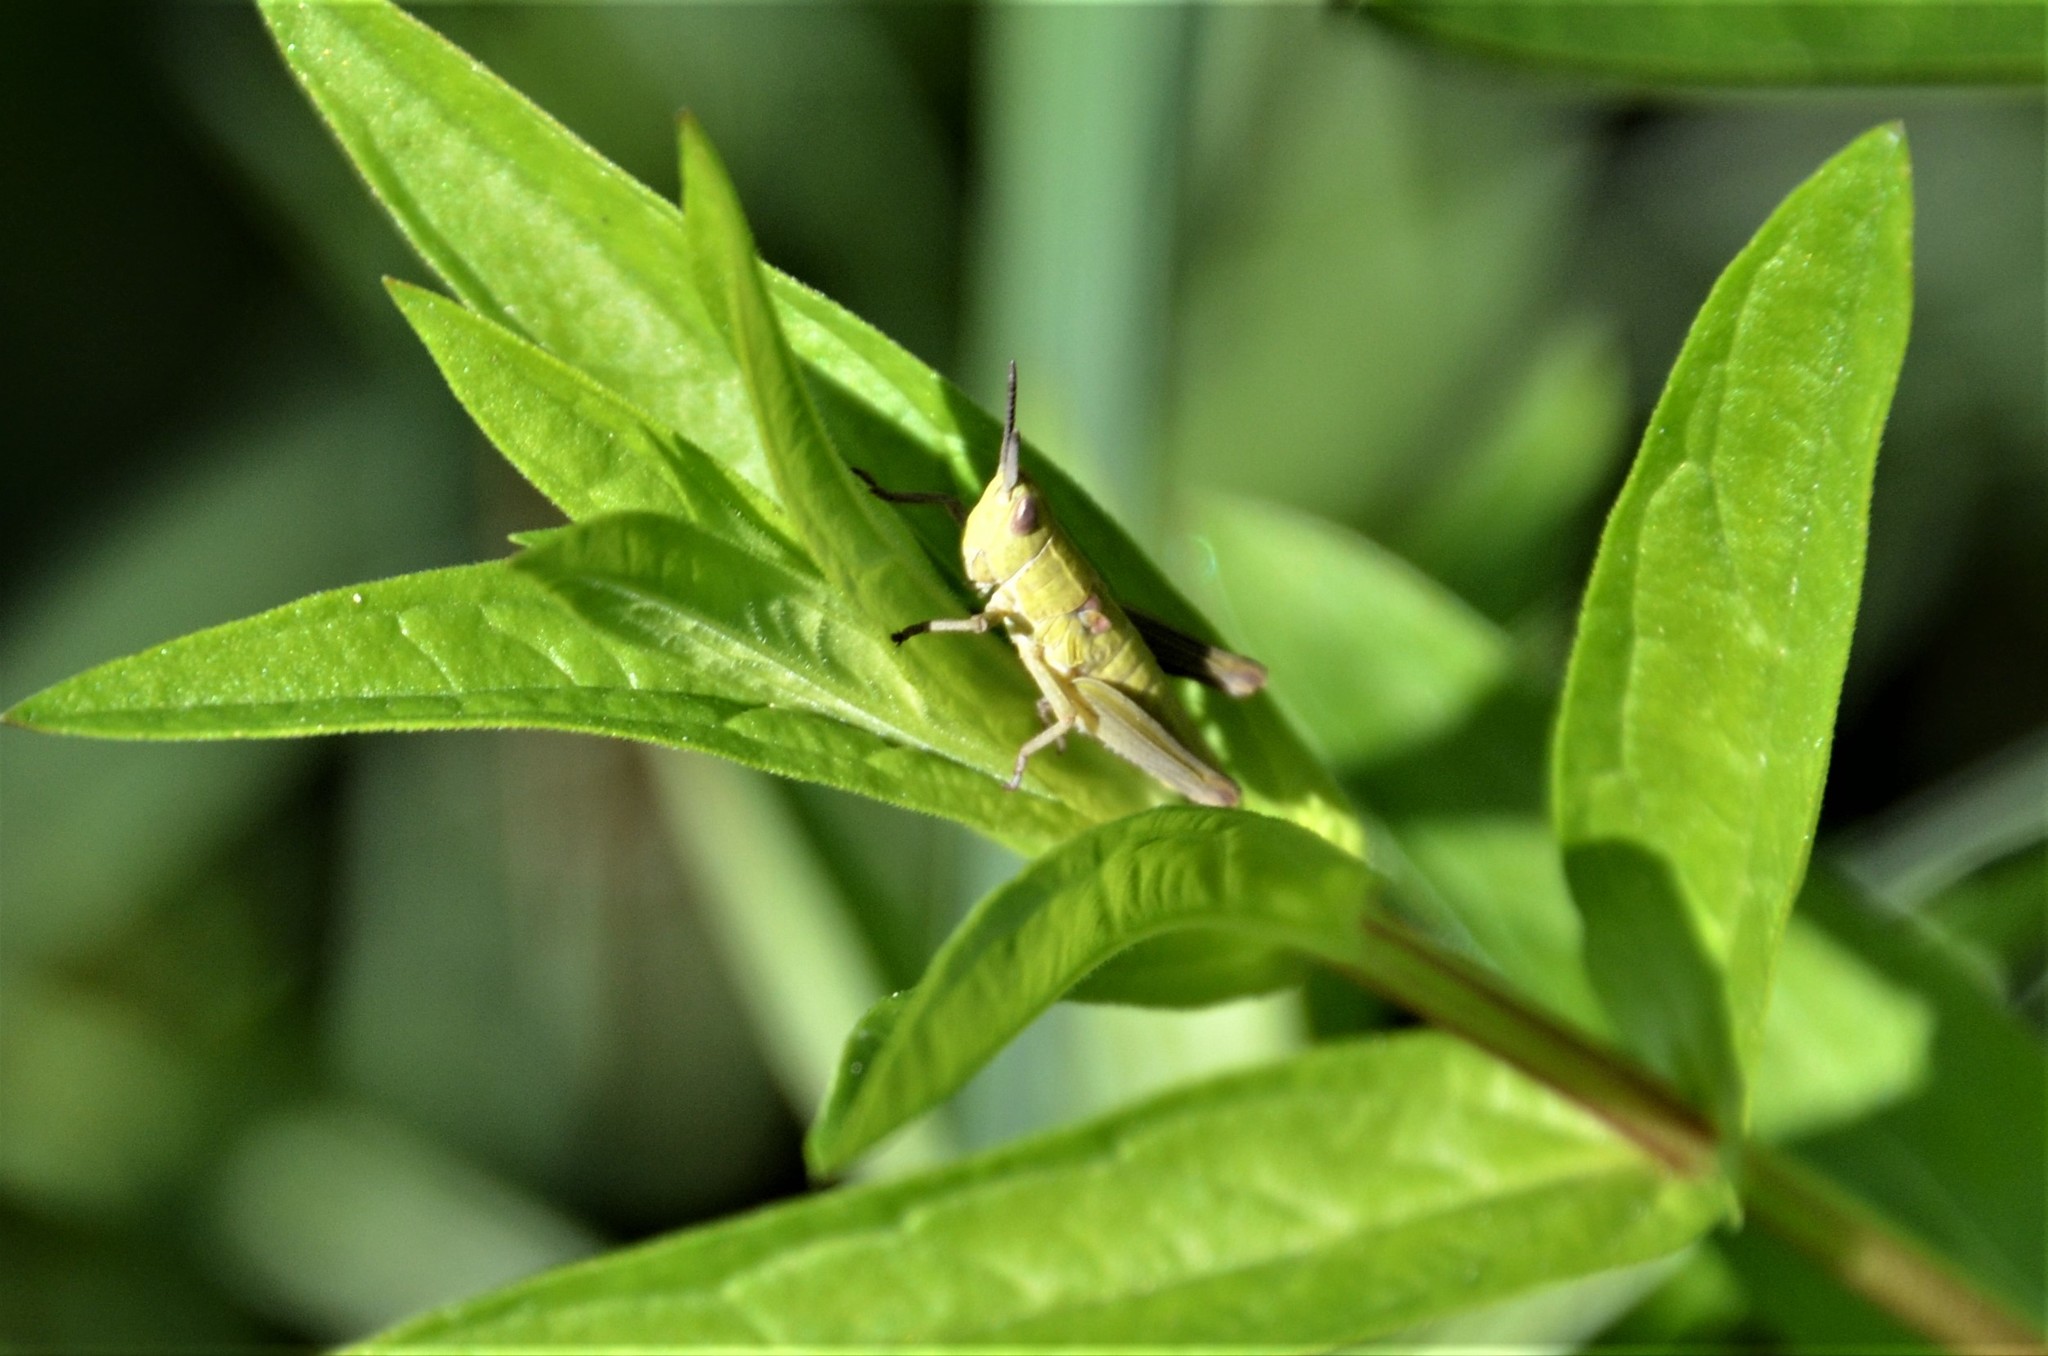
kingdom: Animalia
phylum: Arthropoda
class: Insecta
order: Orthoptera
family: Acrididae
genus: Euthystira
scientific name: Euthystira brachyptera
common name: Small gold grasshopper
